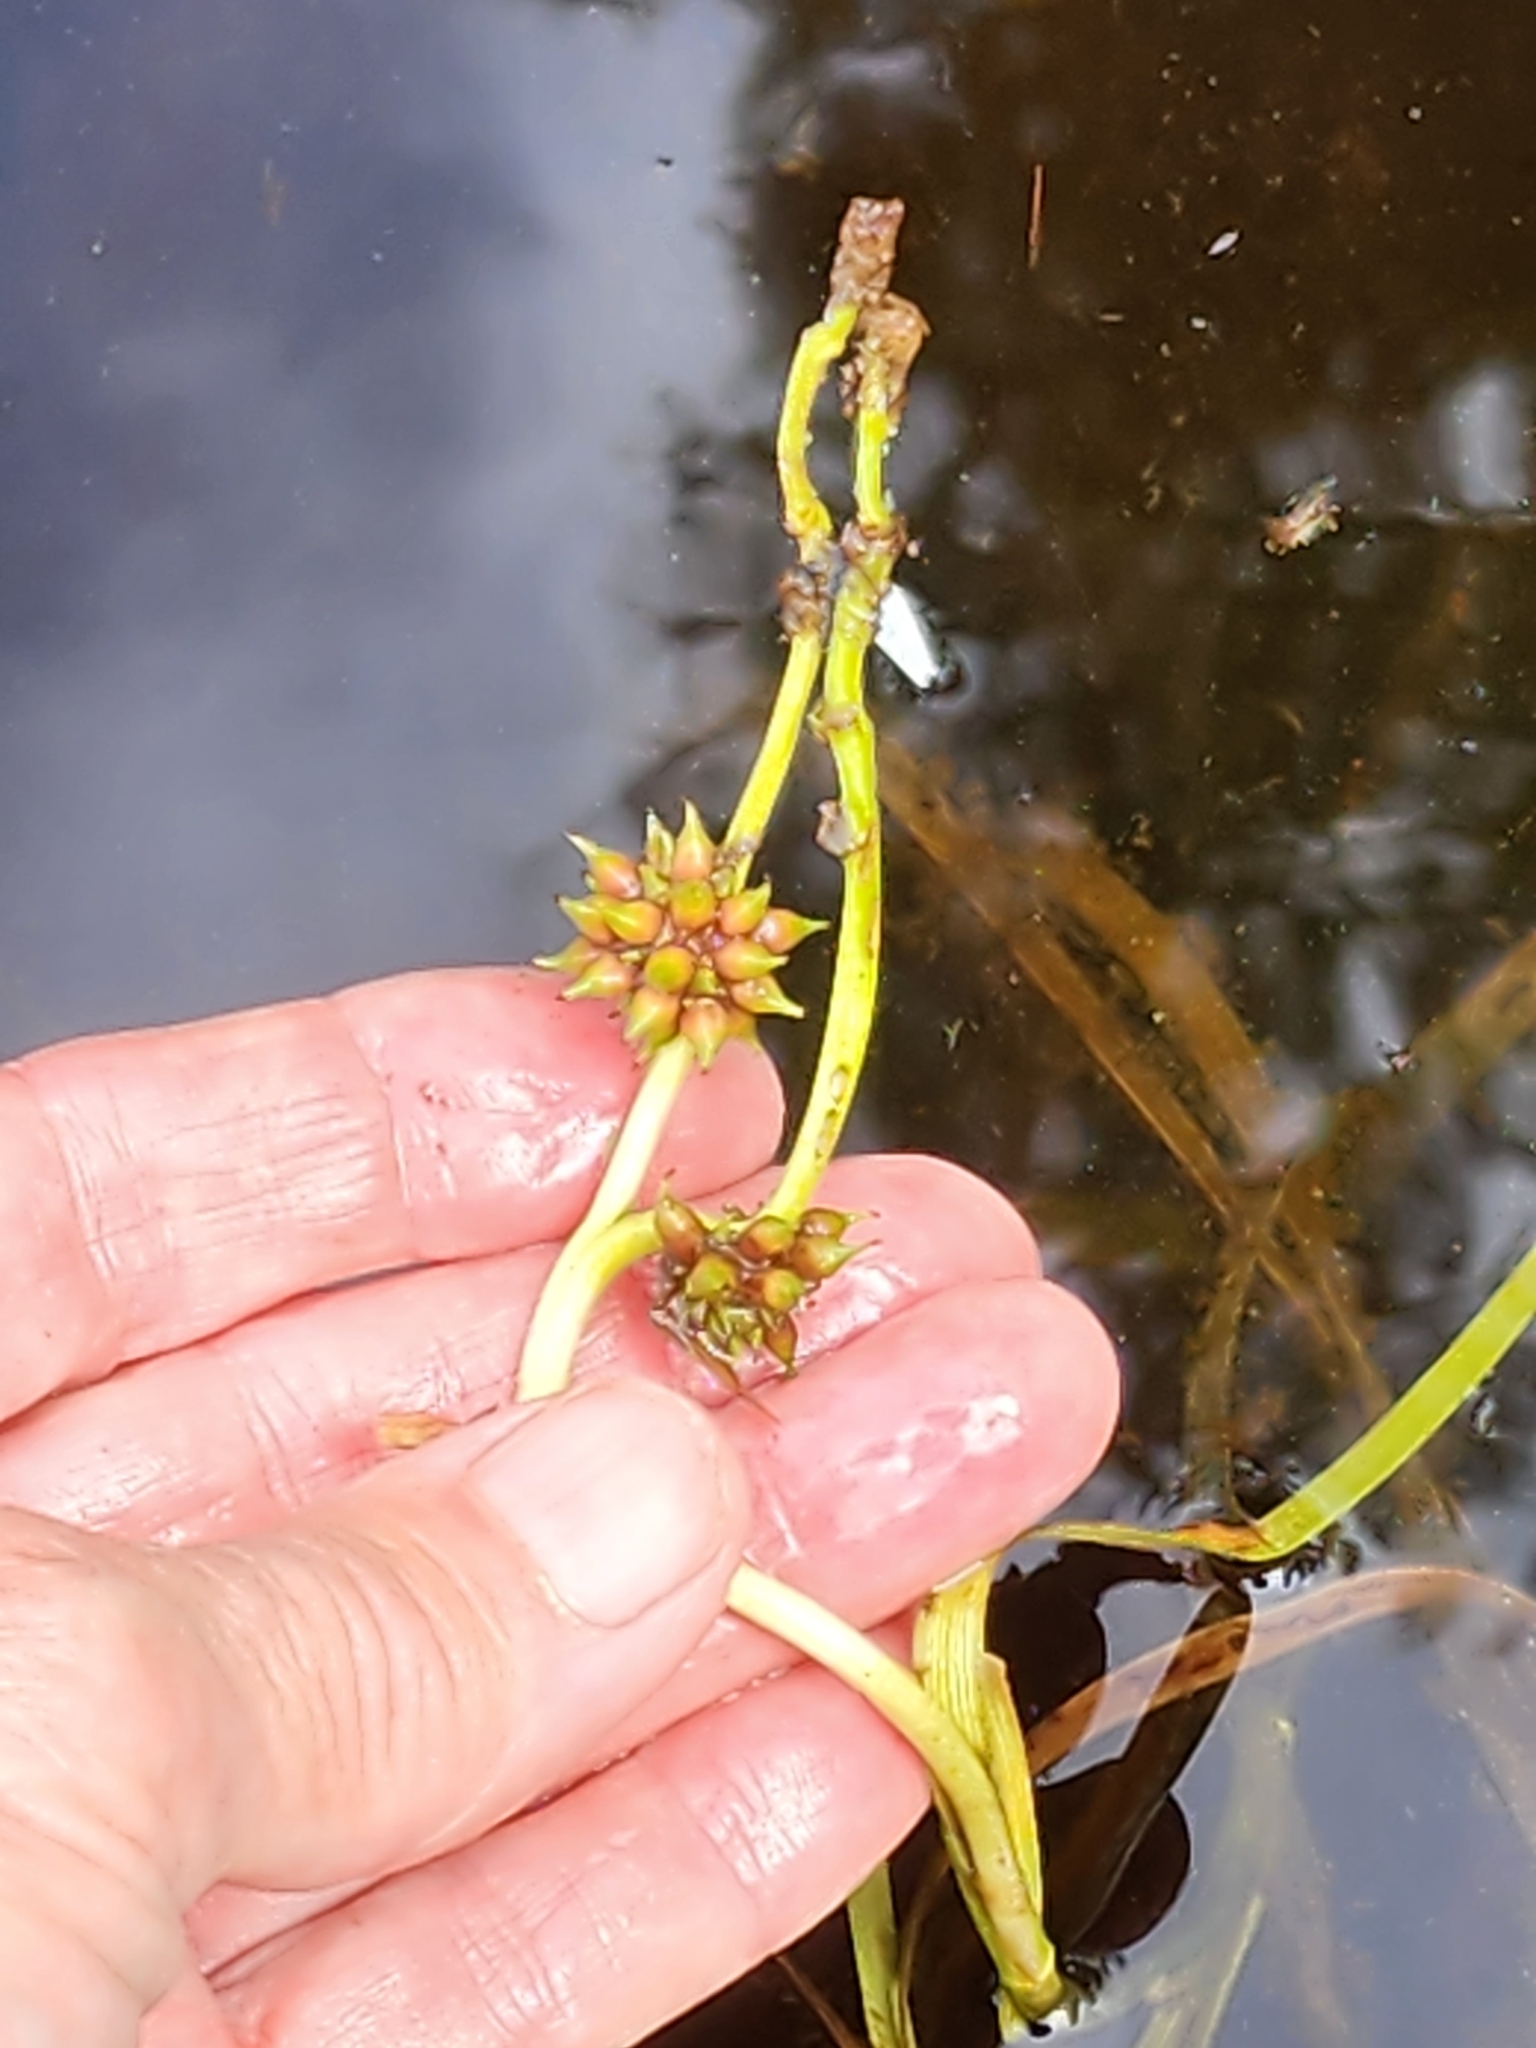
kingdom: Plantae
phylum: Tracheophyta
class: Liliopsida
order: Poales
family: Typhaceae
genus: Sparganium
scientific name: Sparganium fluctuans
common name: Floating burreed
